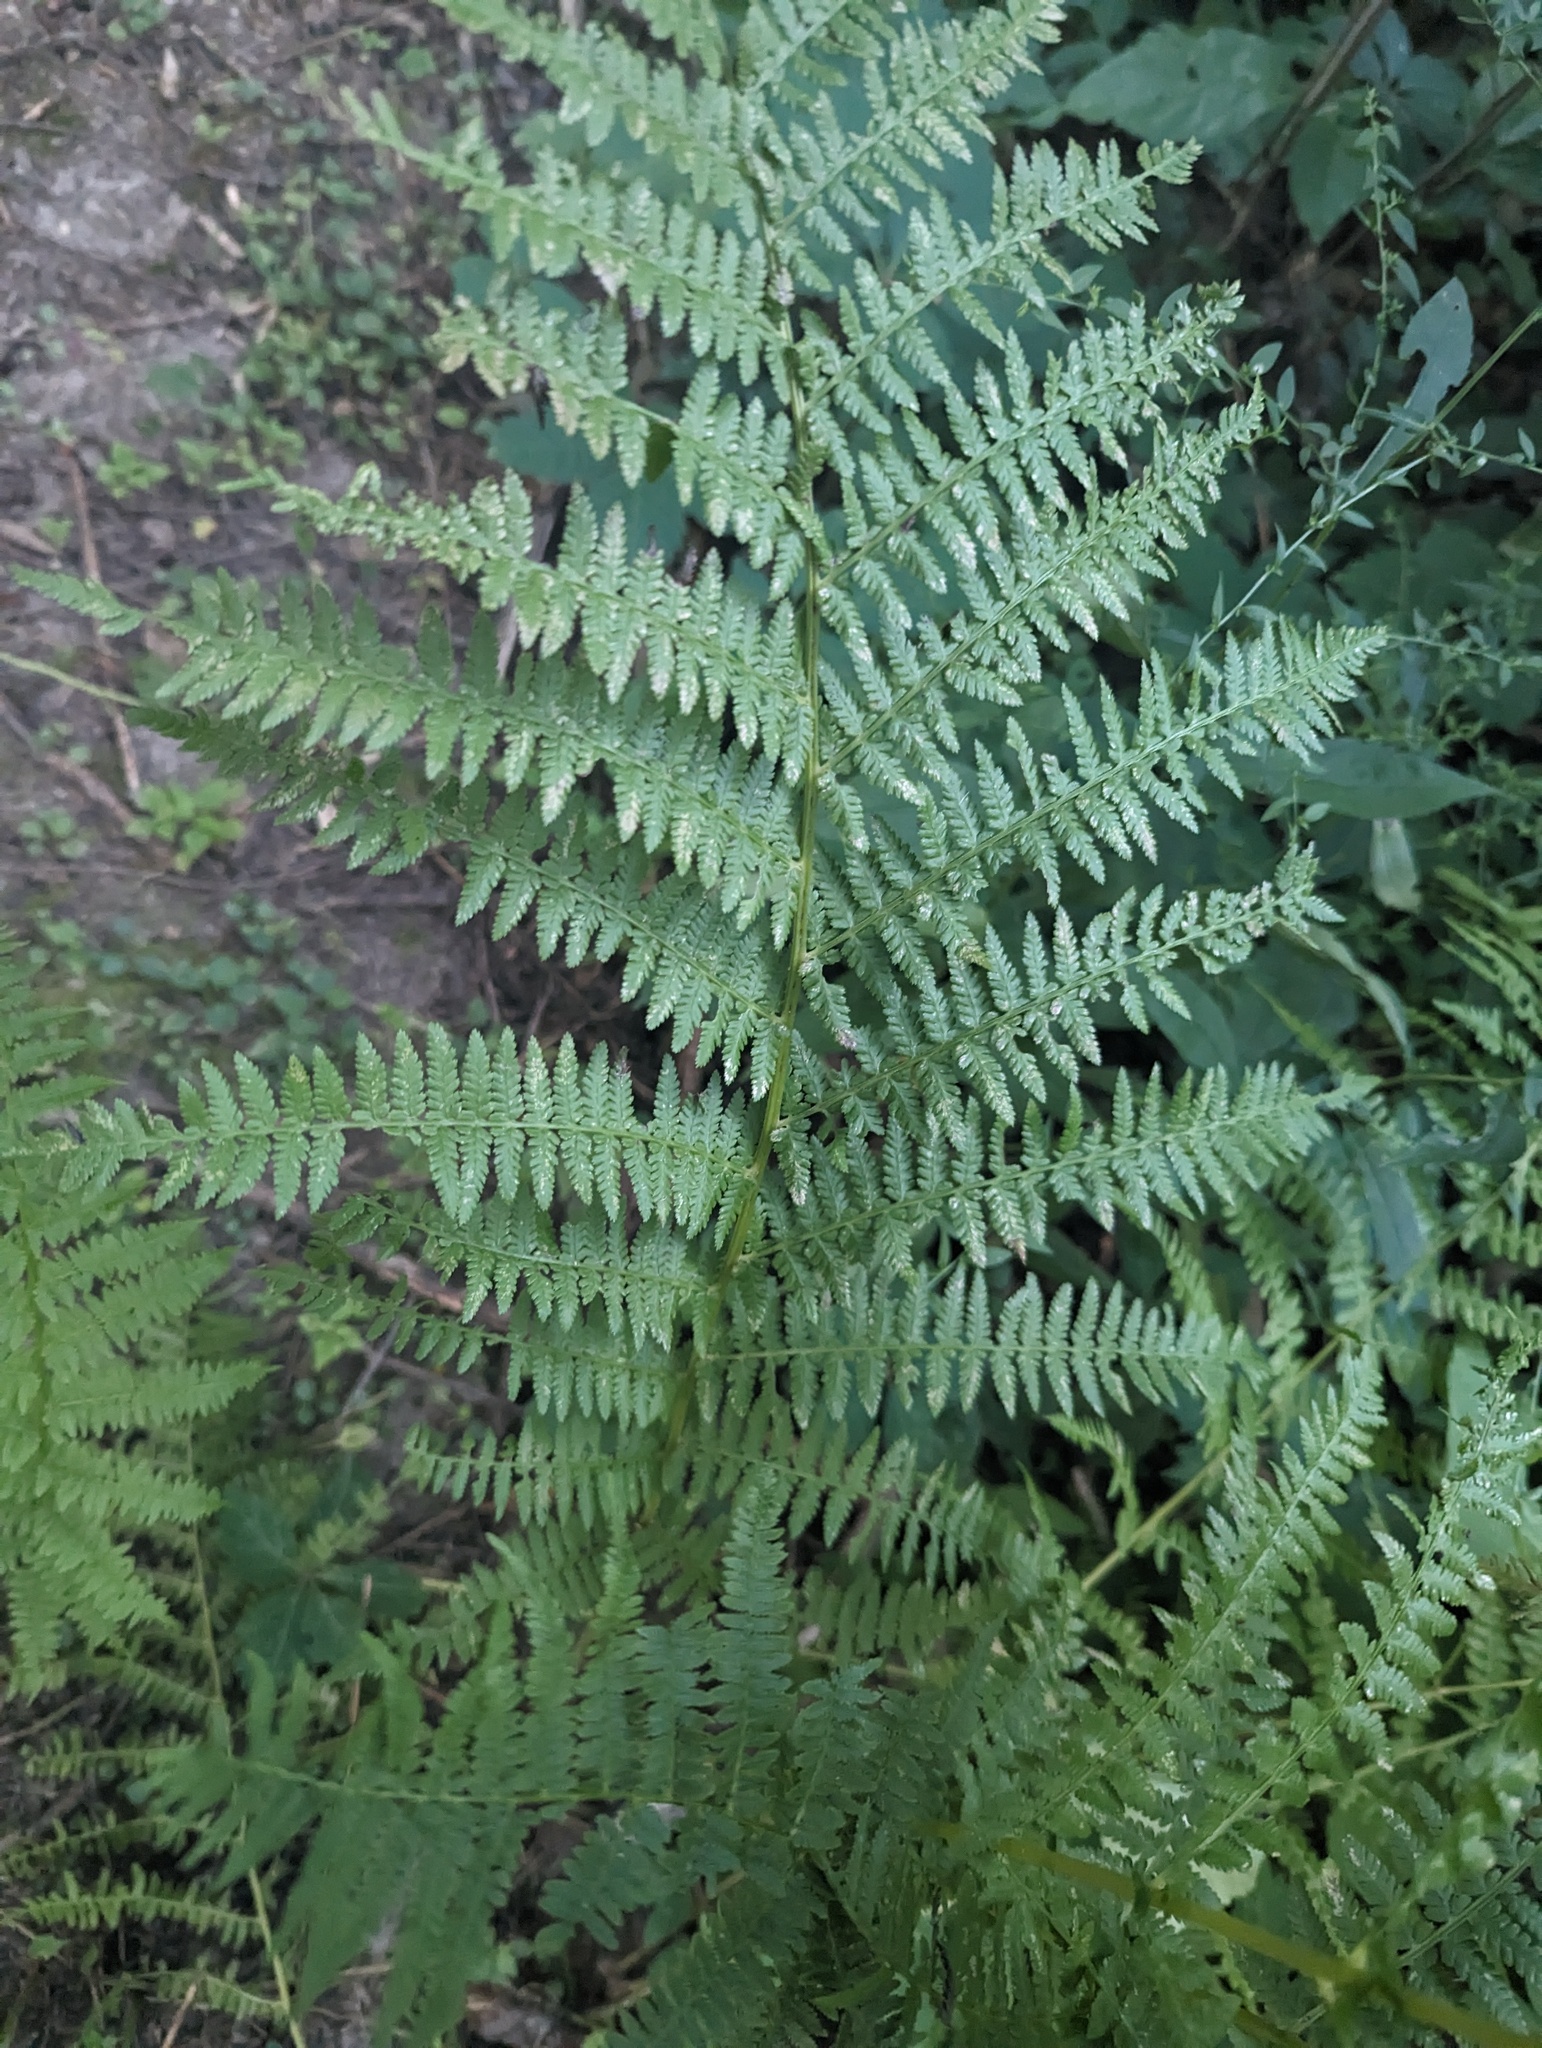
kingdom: Plantae
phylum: Tracheophyta
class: Polypodiopsida
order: Polypodiales
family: Athyriaceae
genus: Athyrium
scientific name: Athyrium angustum
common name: Northern lady fern
